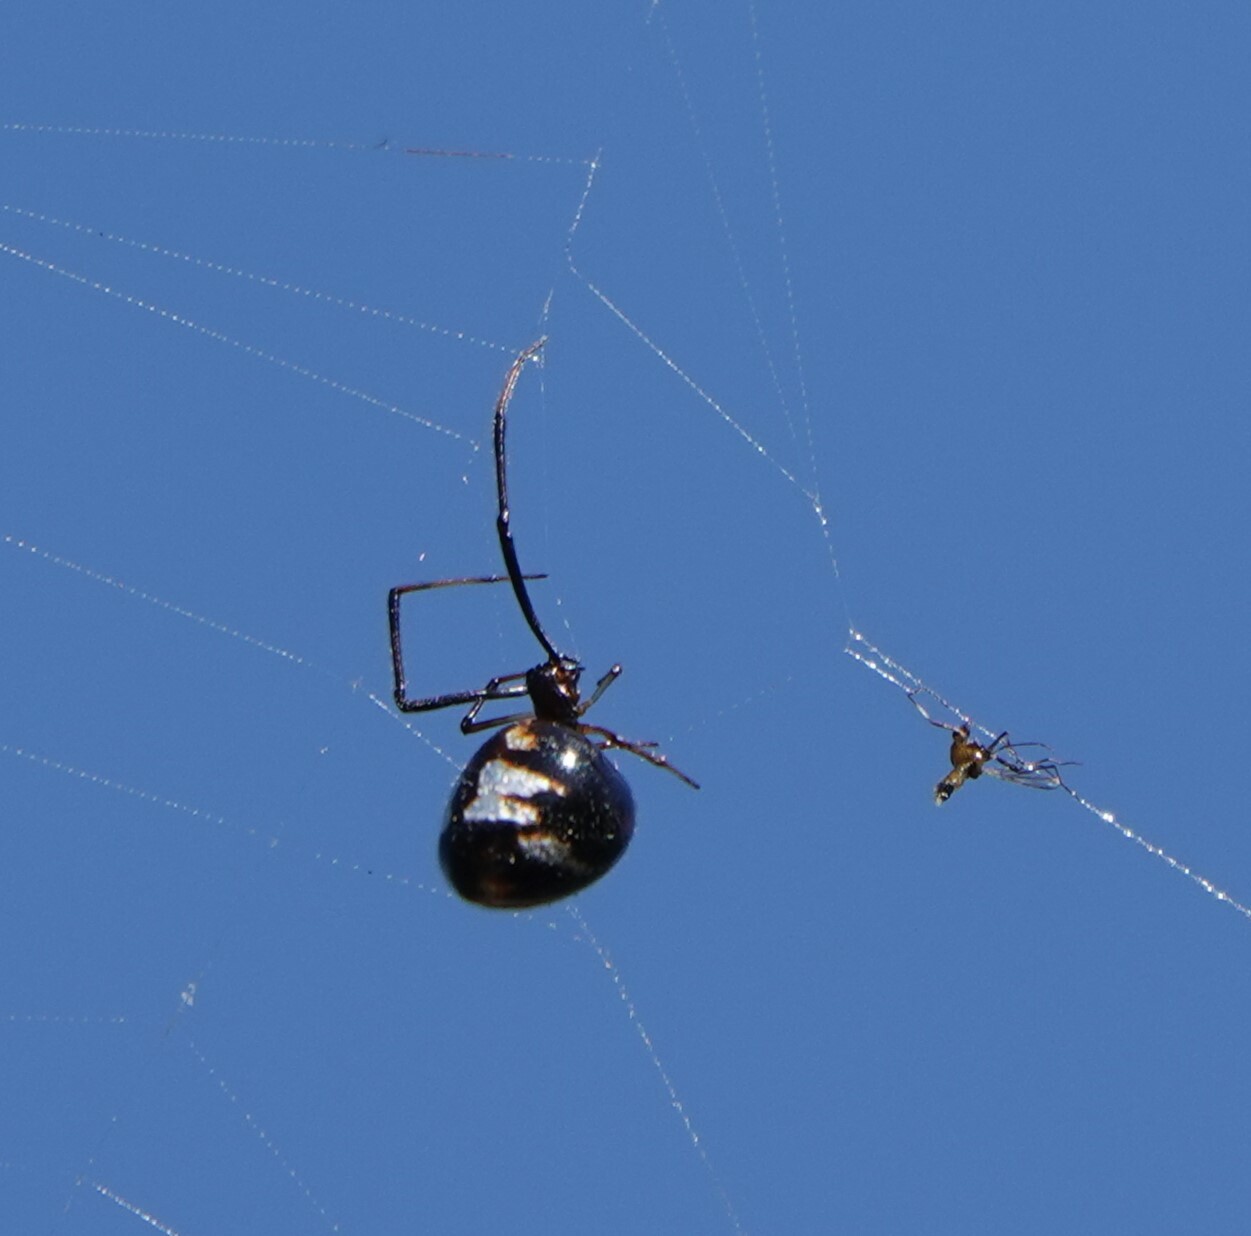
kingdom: Animalia
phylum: Arthropoda
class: Arachnida
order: Araneae
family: Theridiidae
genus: Argyrodes
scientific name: Argyrodes elevatus
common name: Cobweb spiders
